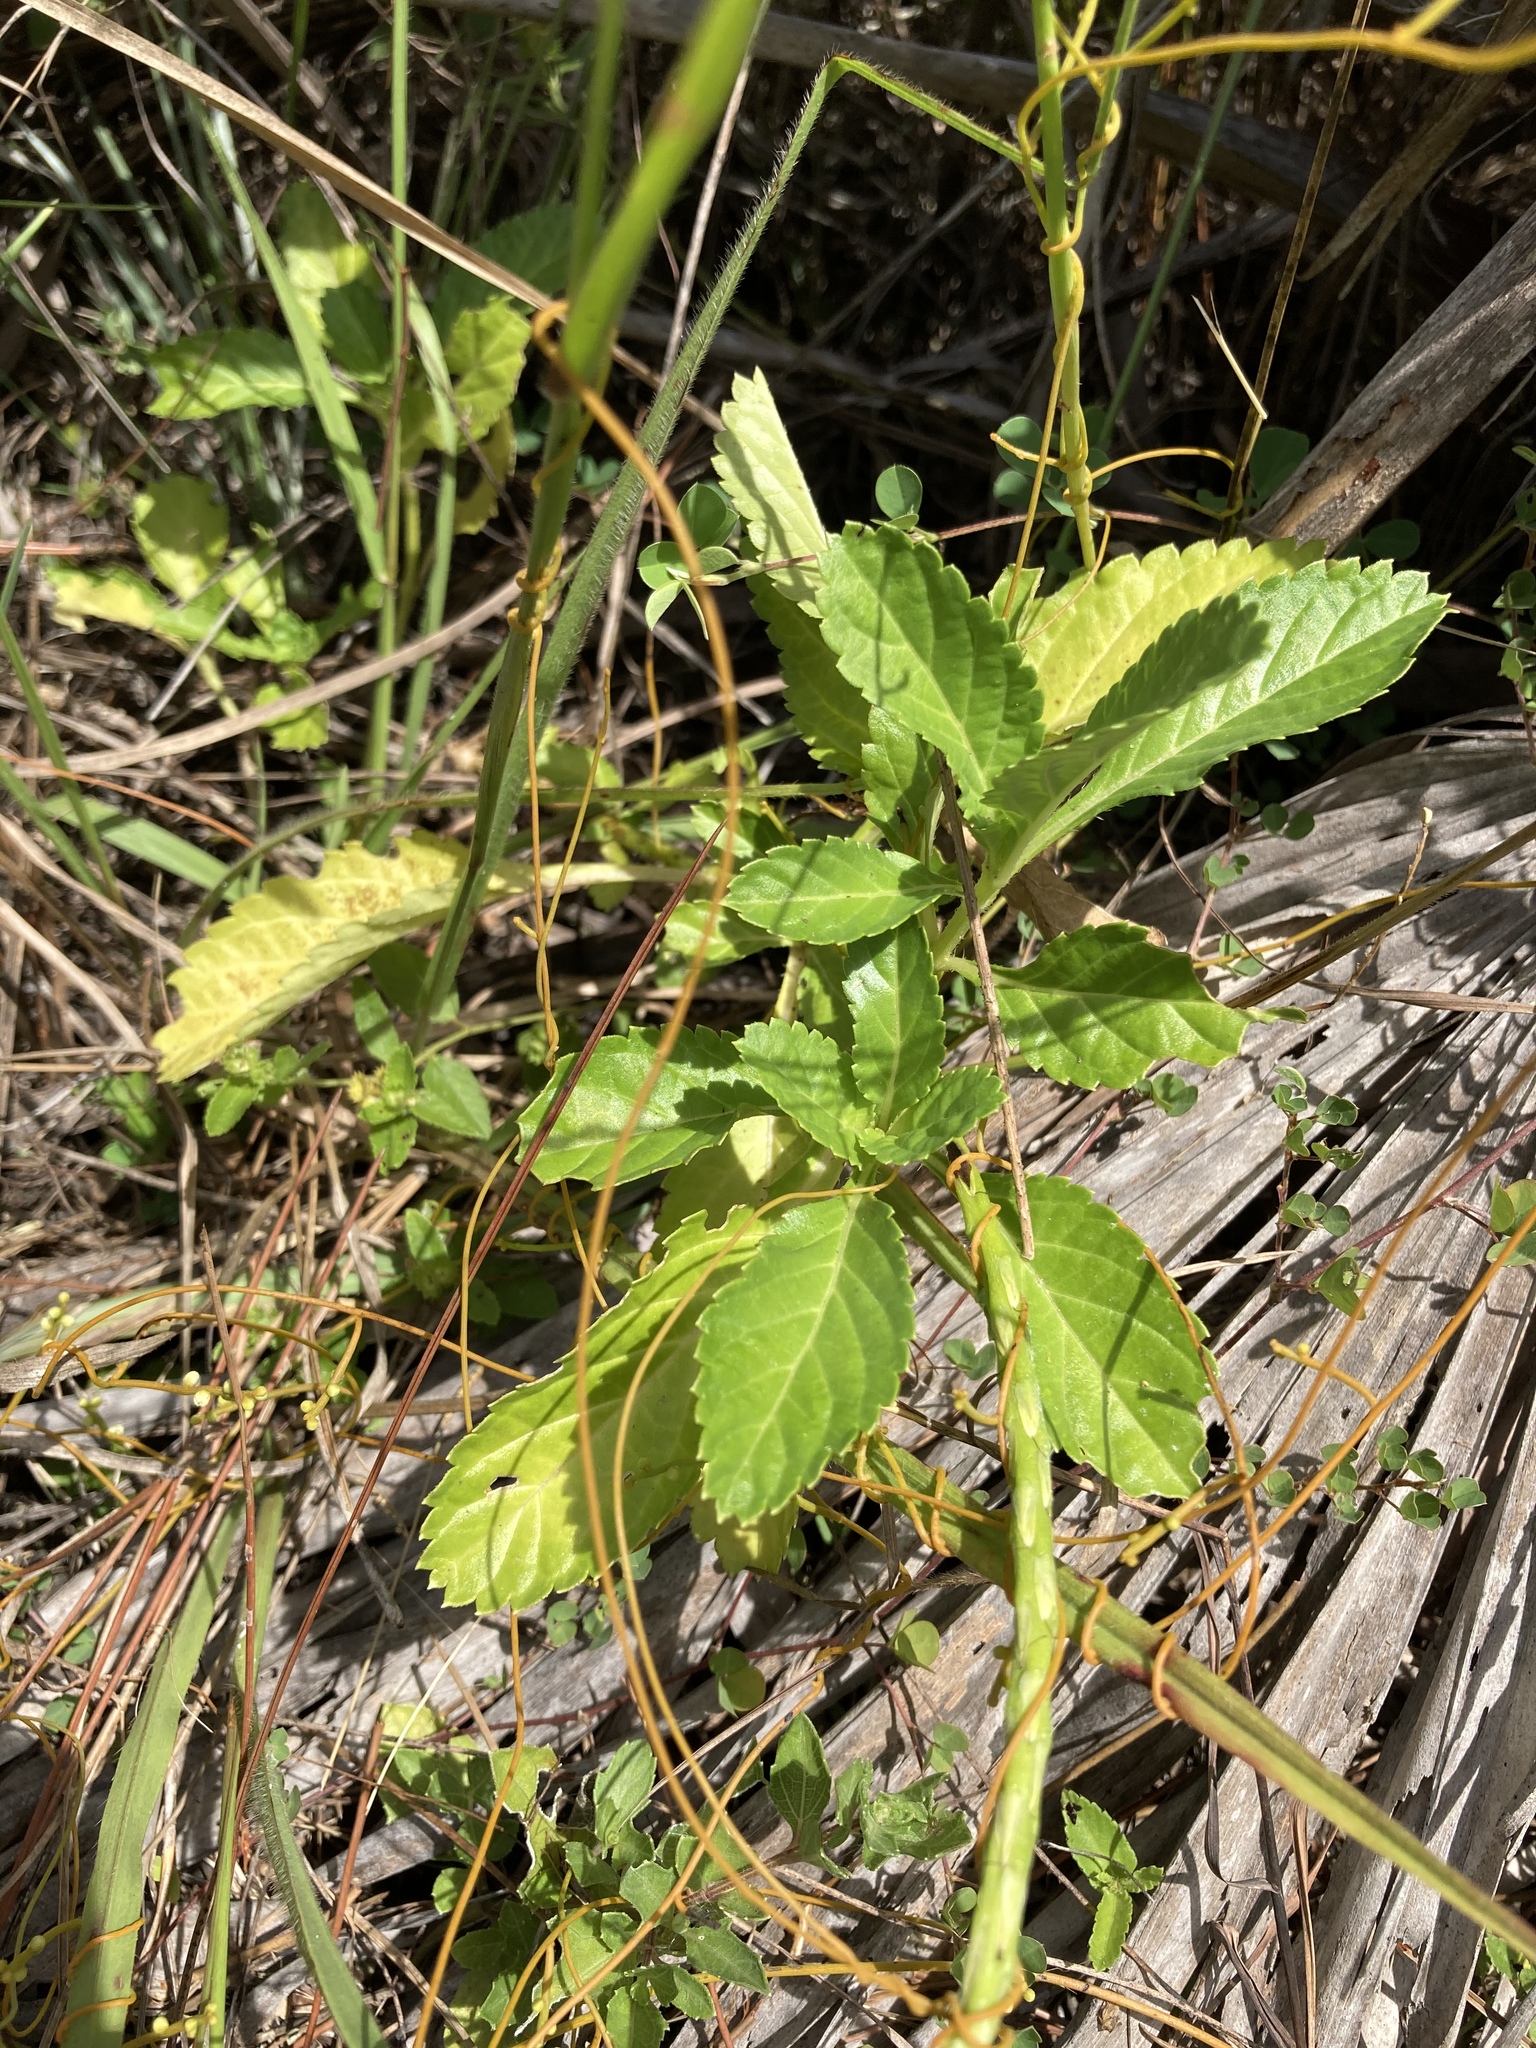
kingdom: Plantae
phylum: Tracheophyta
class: Magnoliopsida
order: Lamiales
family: Verbenaceae
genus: Stachytarpheta
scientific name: Stachytarpheta jamaicensis
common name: Light-blue snakeweed
